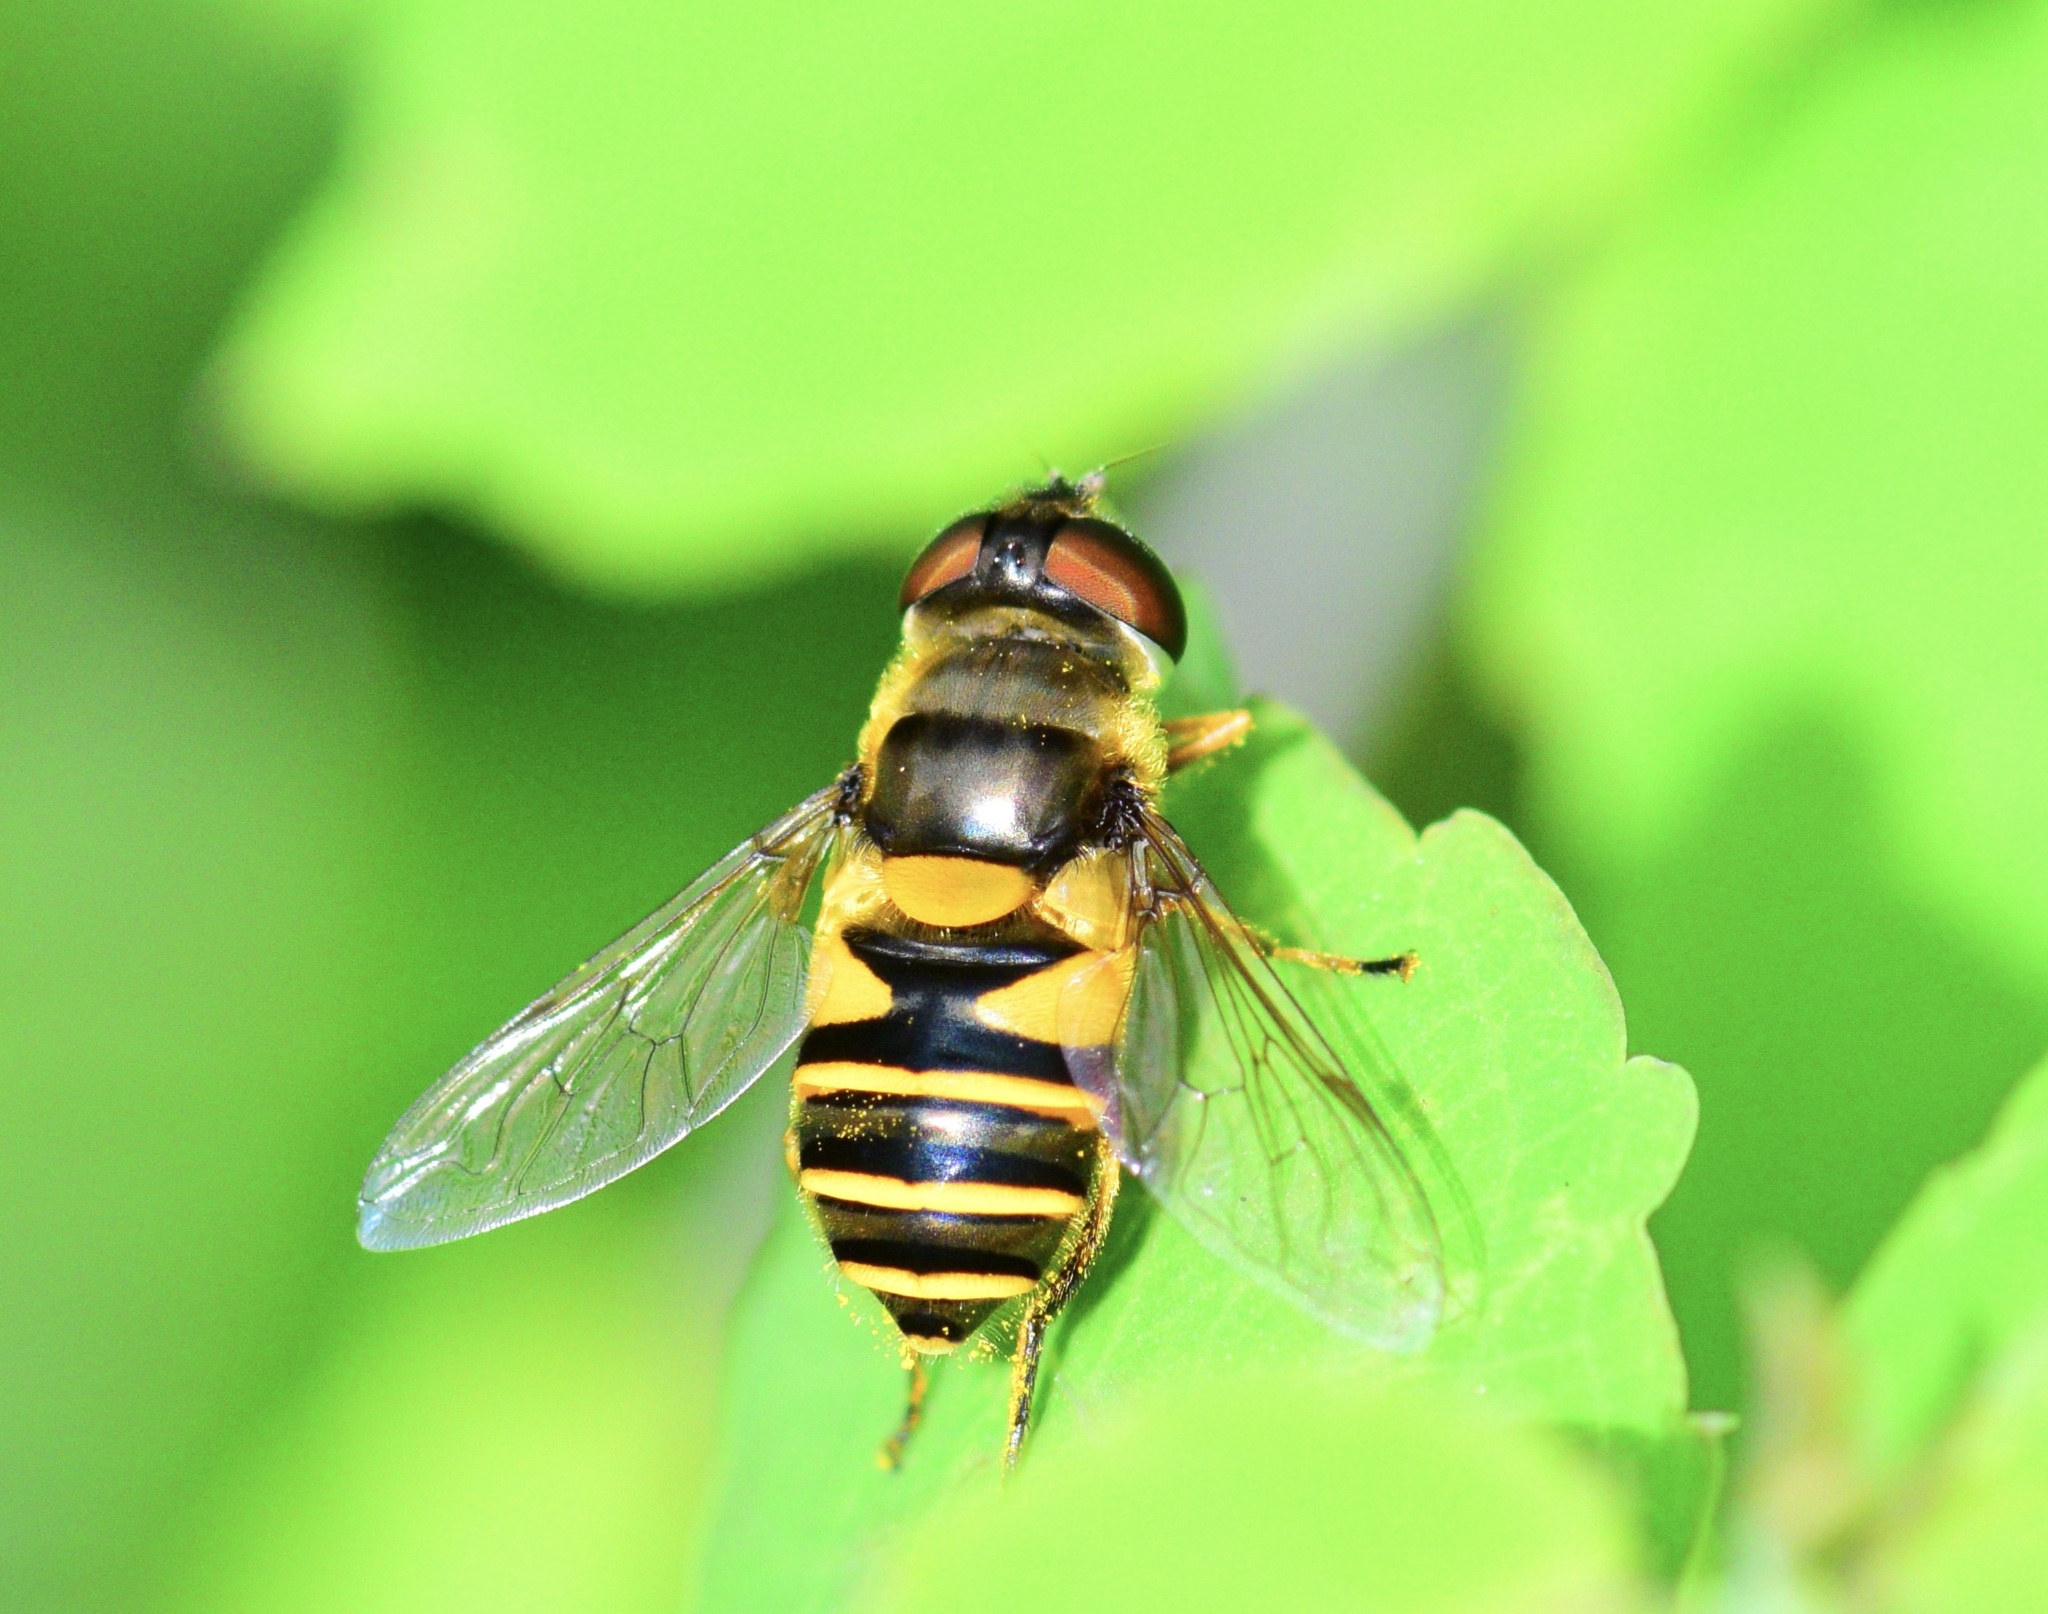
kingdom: Animalia
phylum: Arthropoda
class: Insecta
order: Diptera
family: Syrphidae
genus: Eristalis
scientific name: Eristalis transversa
